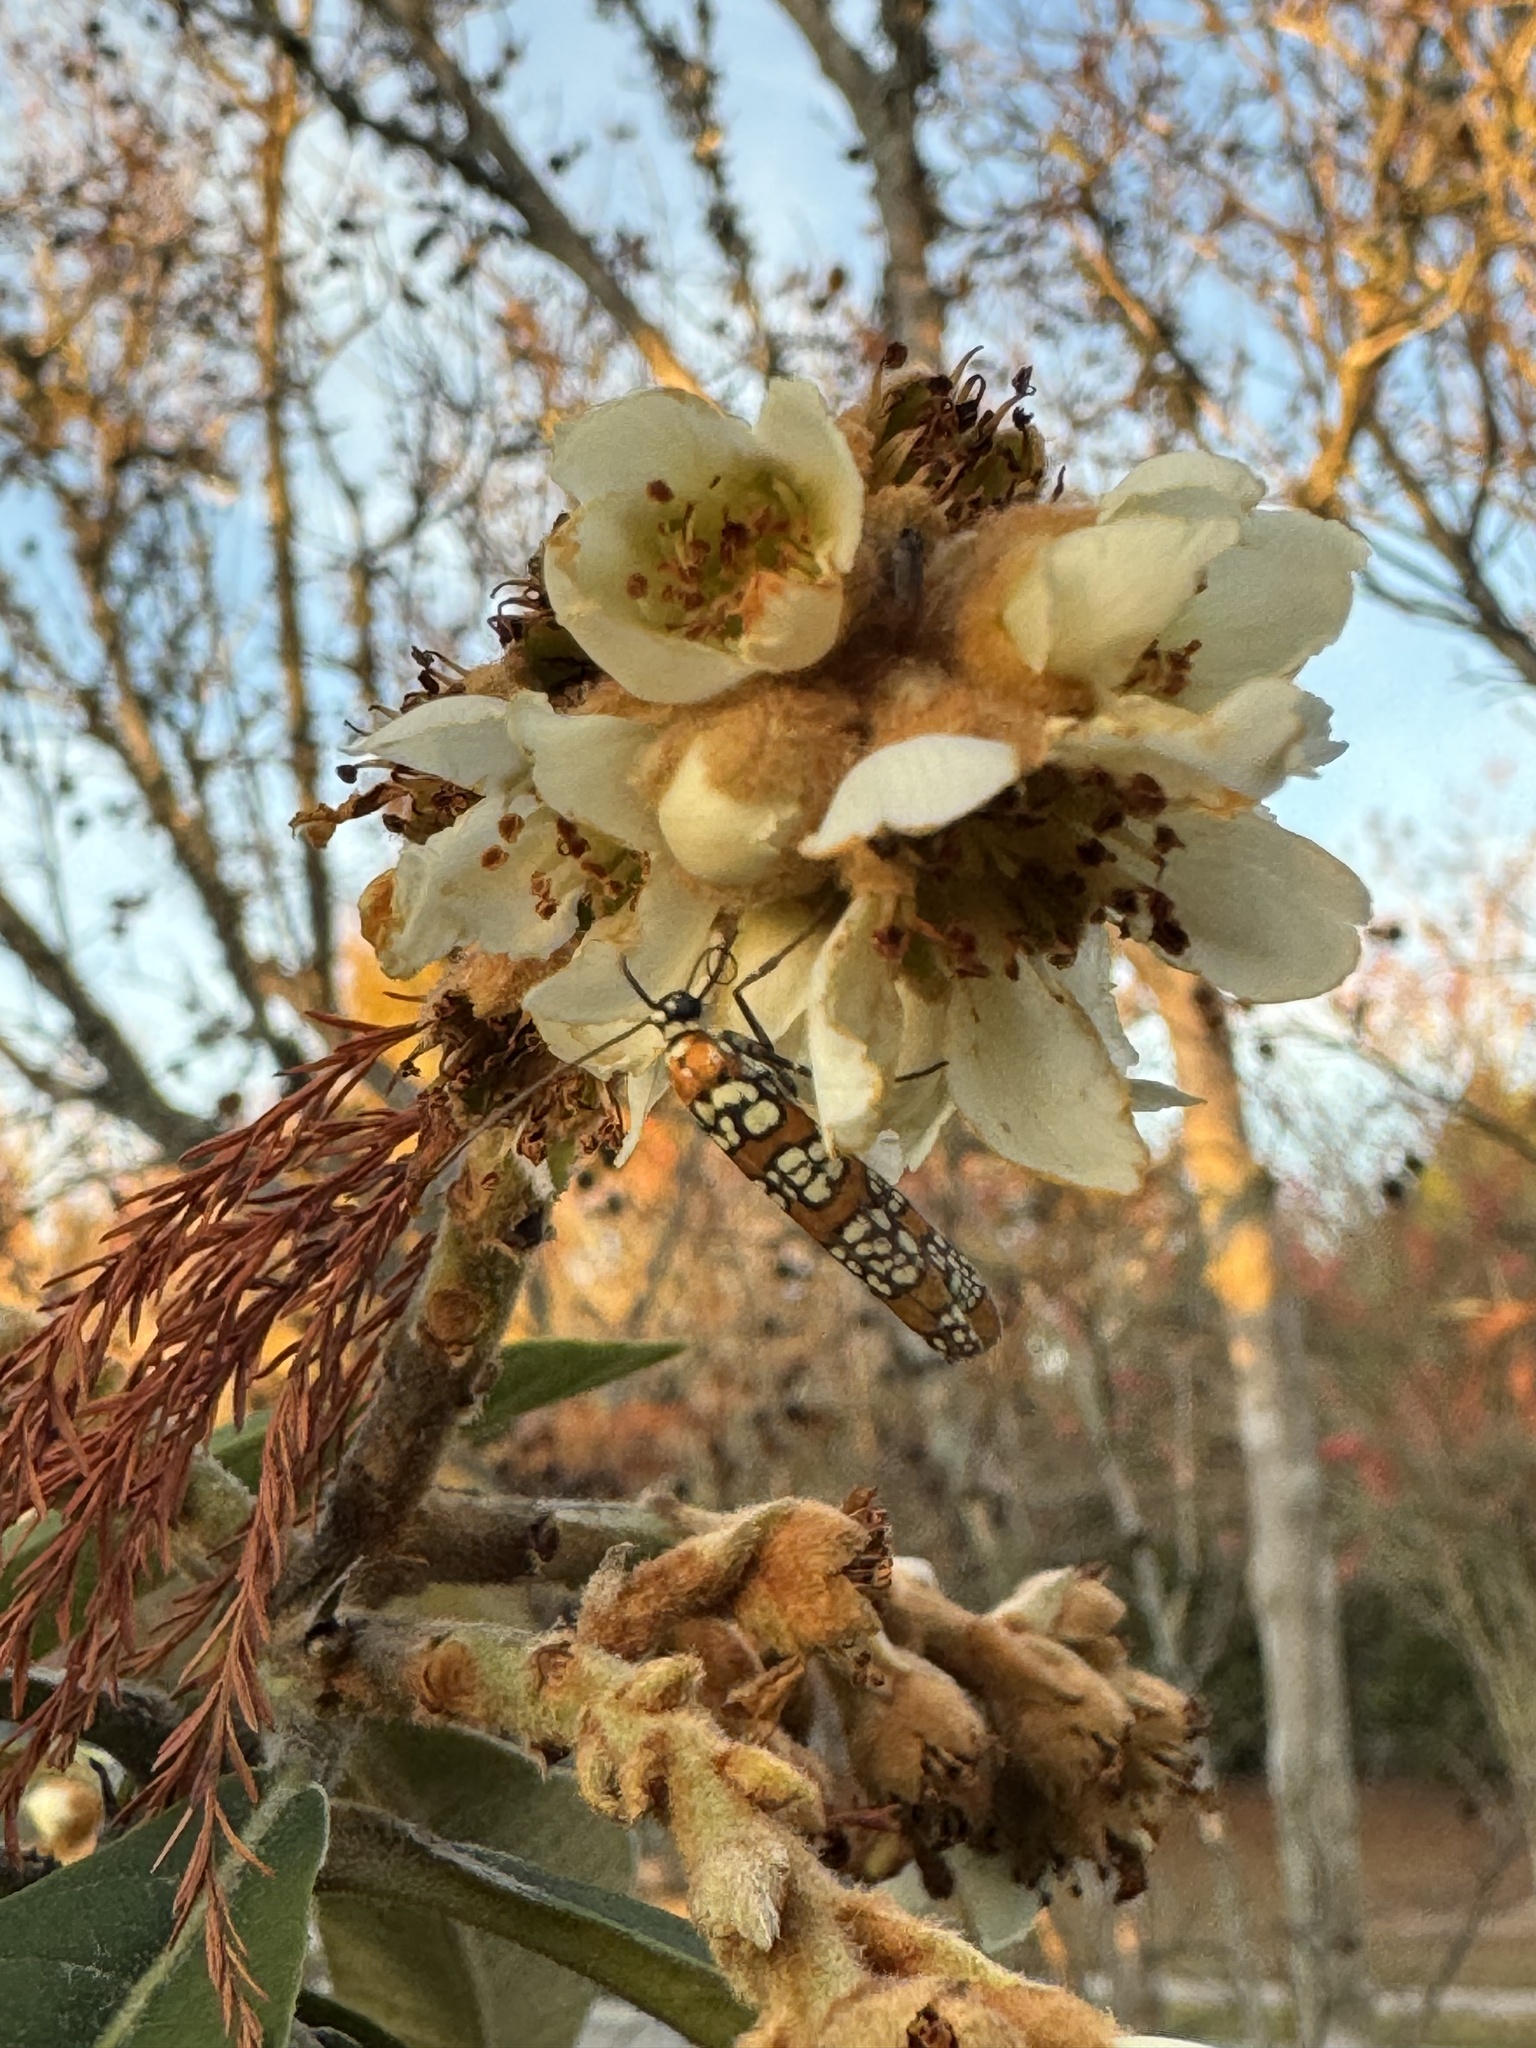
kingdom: Animalia
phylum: Arthropoda
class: Insecta
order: Lepidoptera
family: Attevidae
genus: Atteva
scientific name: Atteva punctella
